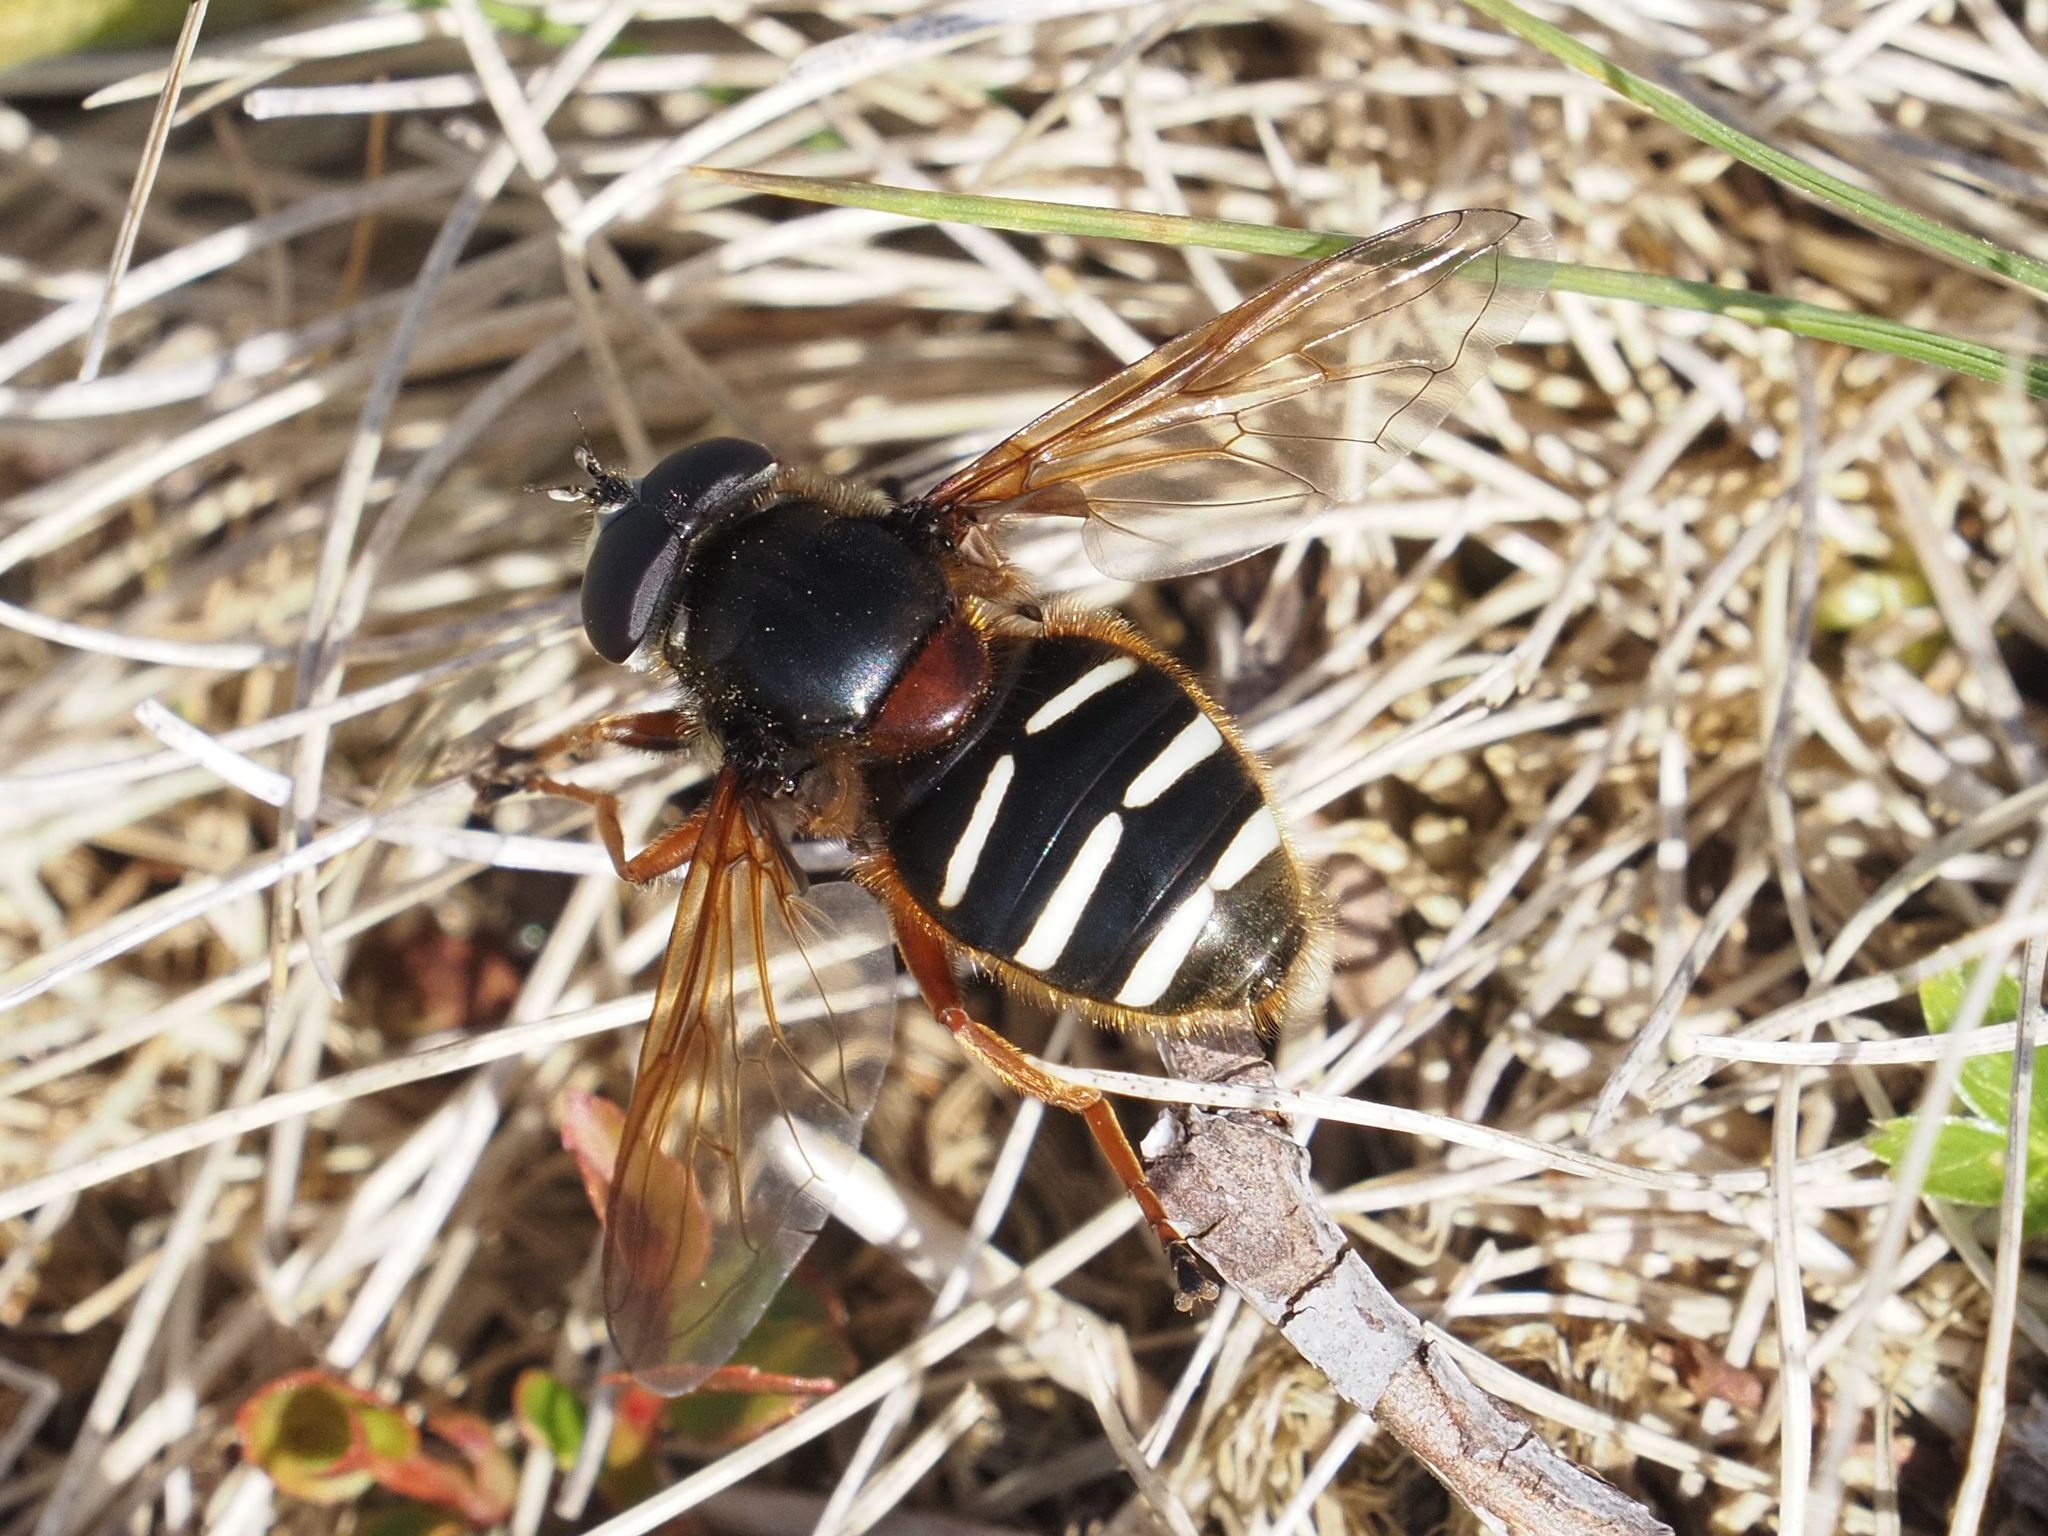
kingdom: Animalia
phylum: Arthropoda
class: Insecta
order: Diptera
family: Syrphidae
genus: Sericomyia
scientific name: Sericomyia lappona
